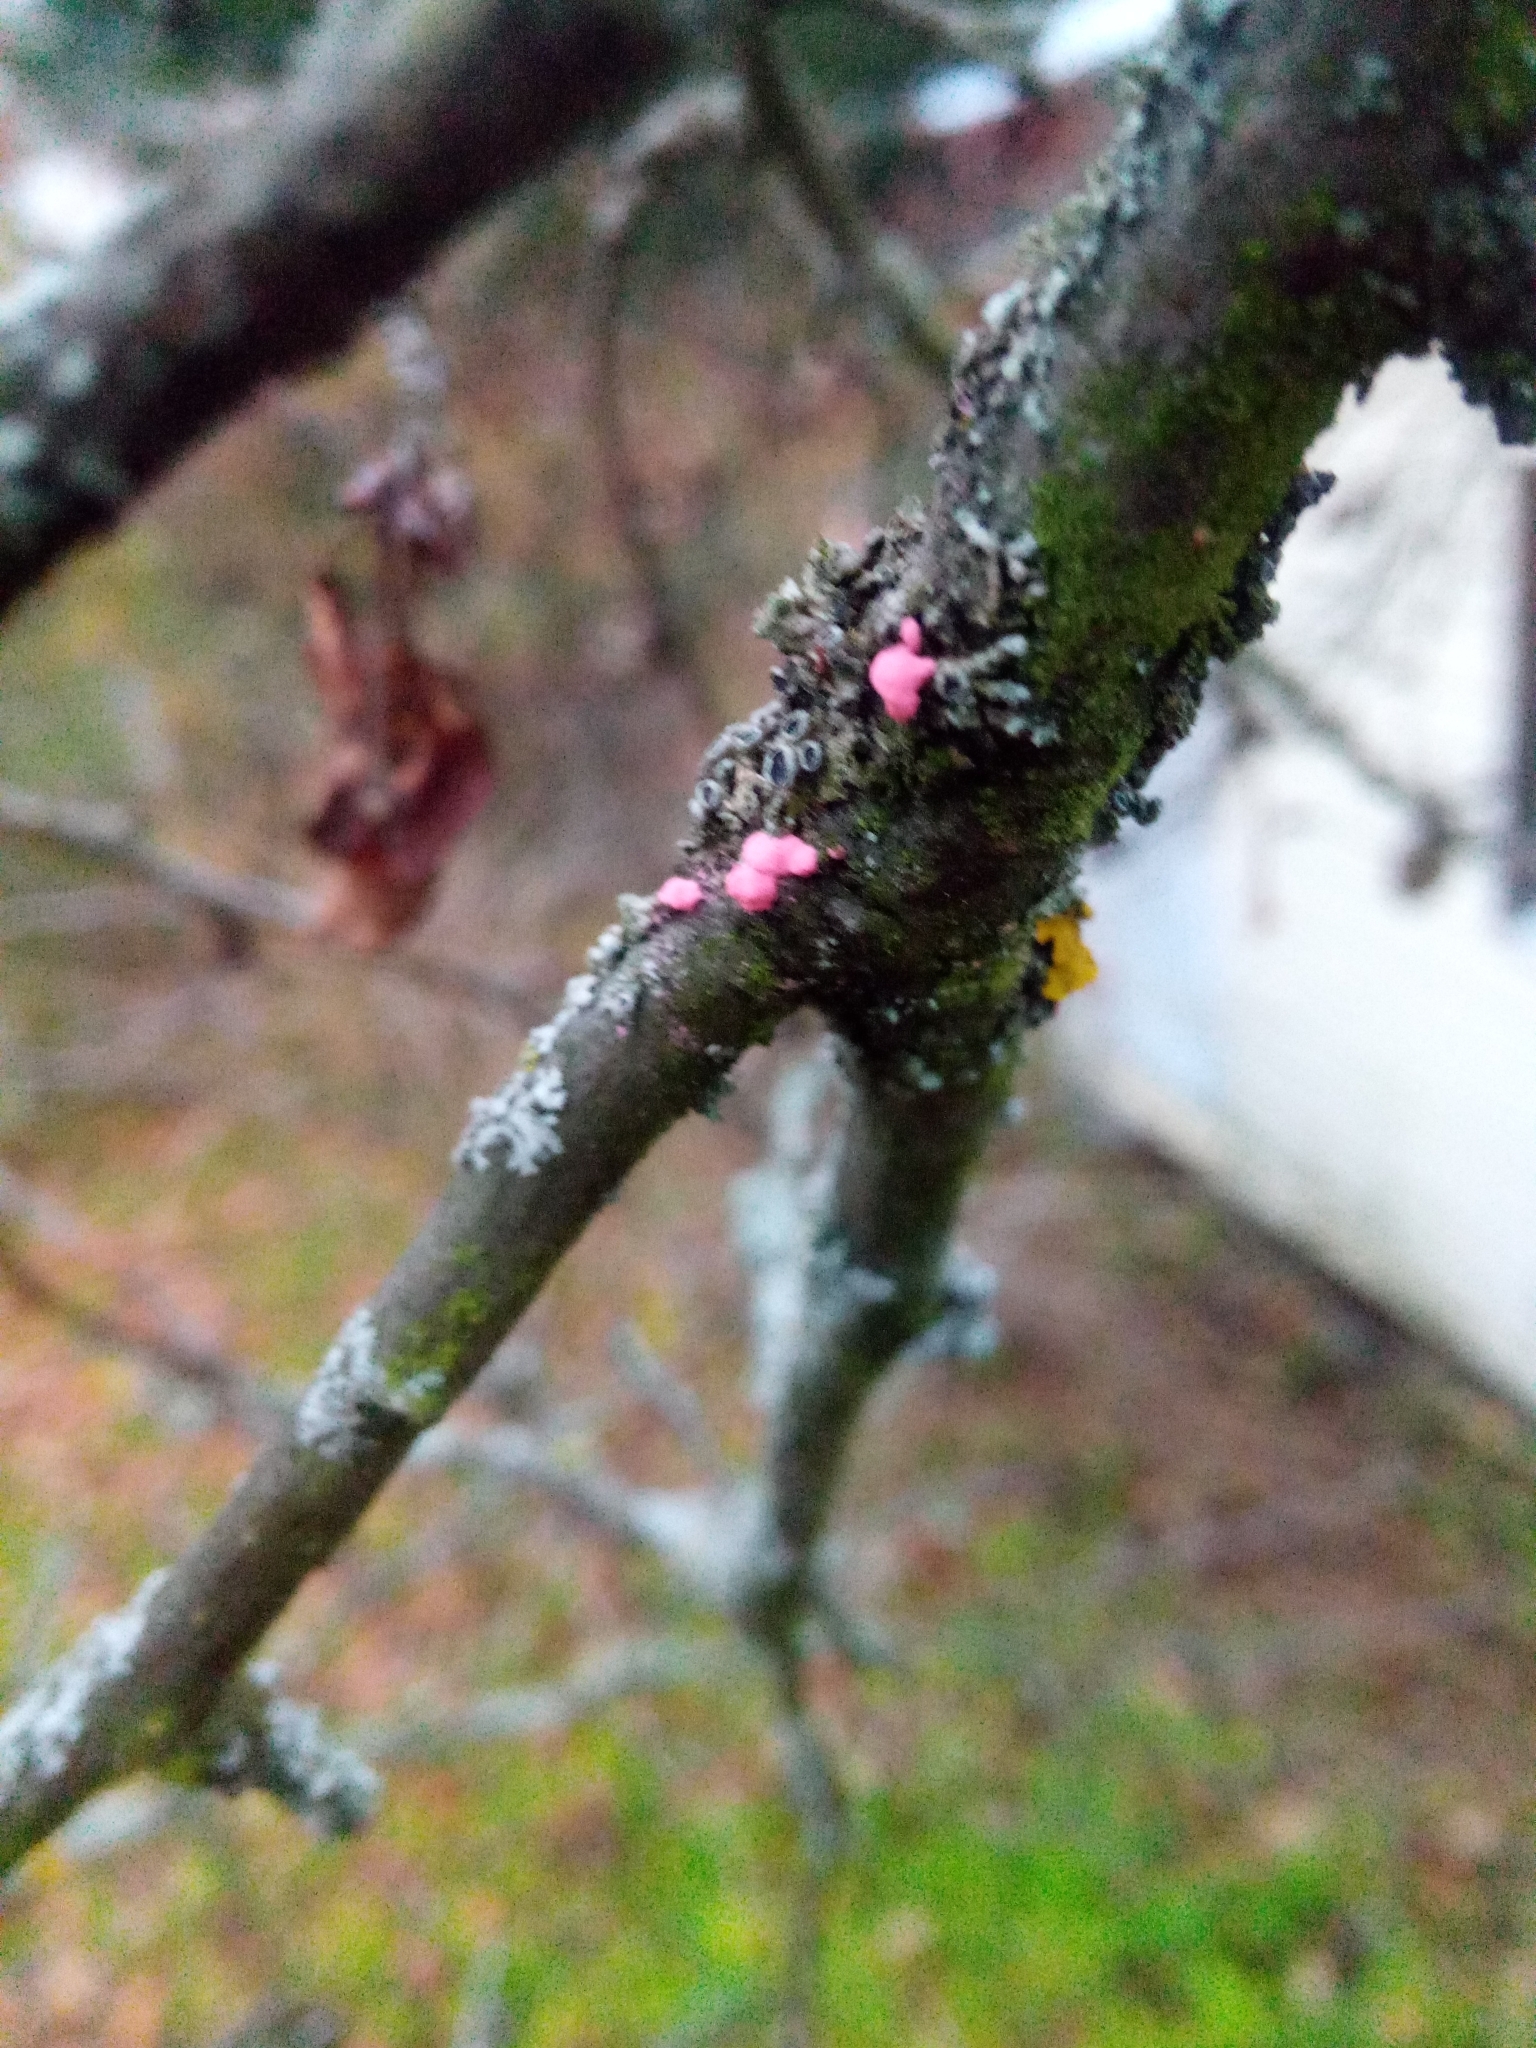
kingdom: Fungi
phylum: Ascomycota
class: Sordariomycetes
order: Hypocreales
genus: Illosporiopsis
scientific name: Illosporiopsis christiansenii
